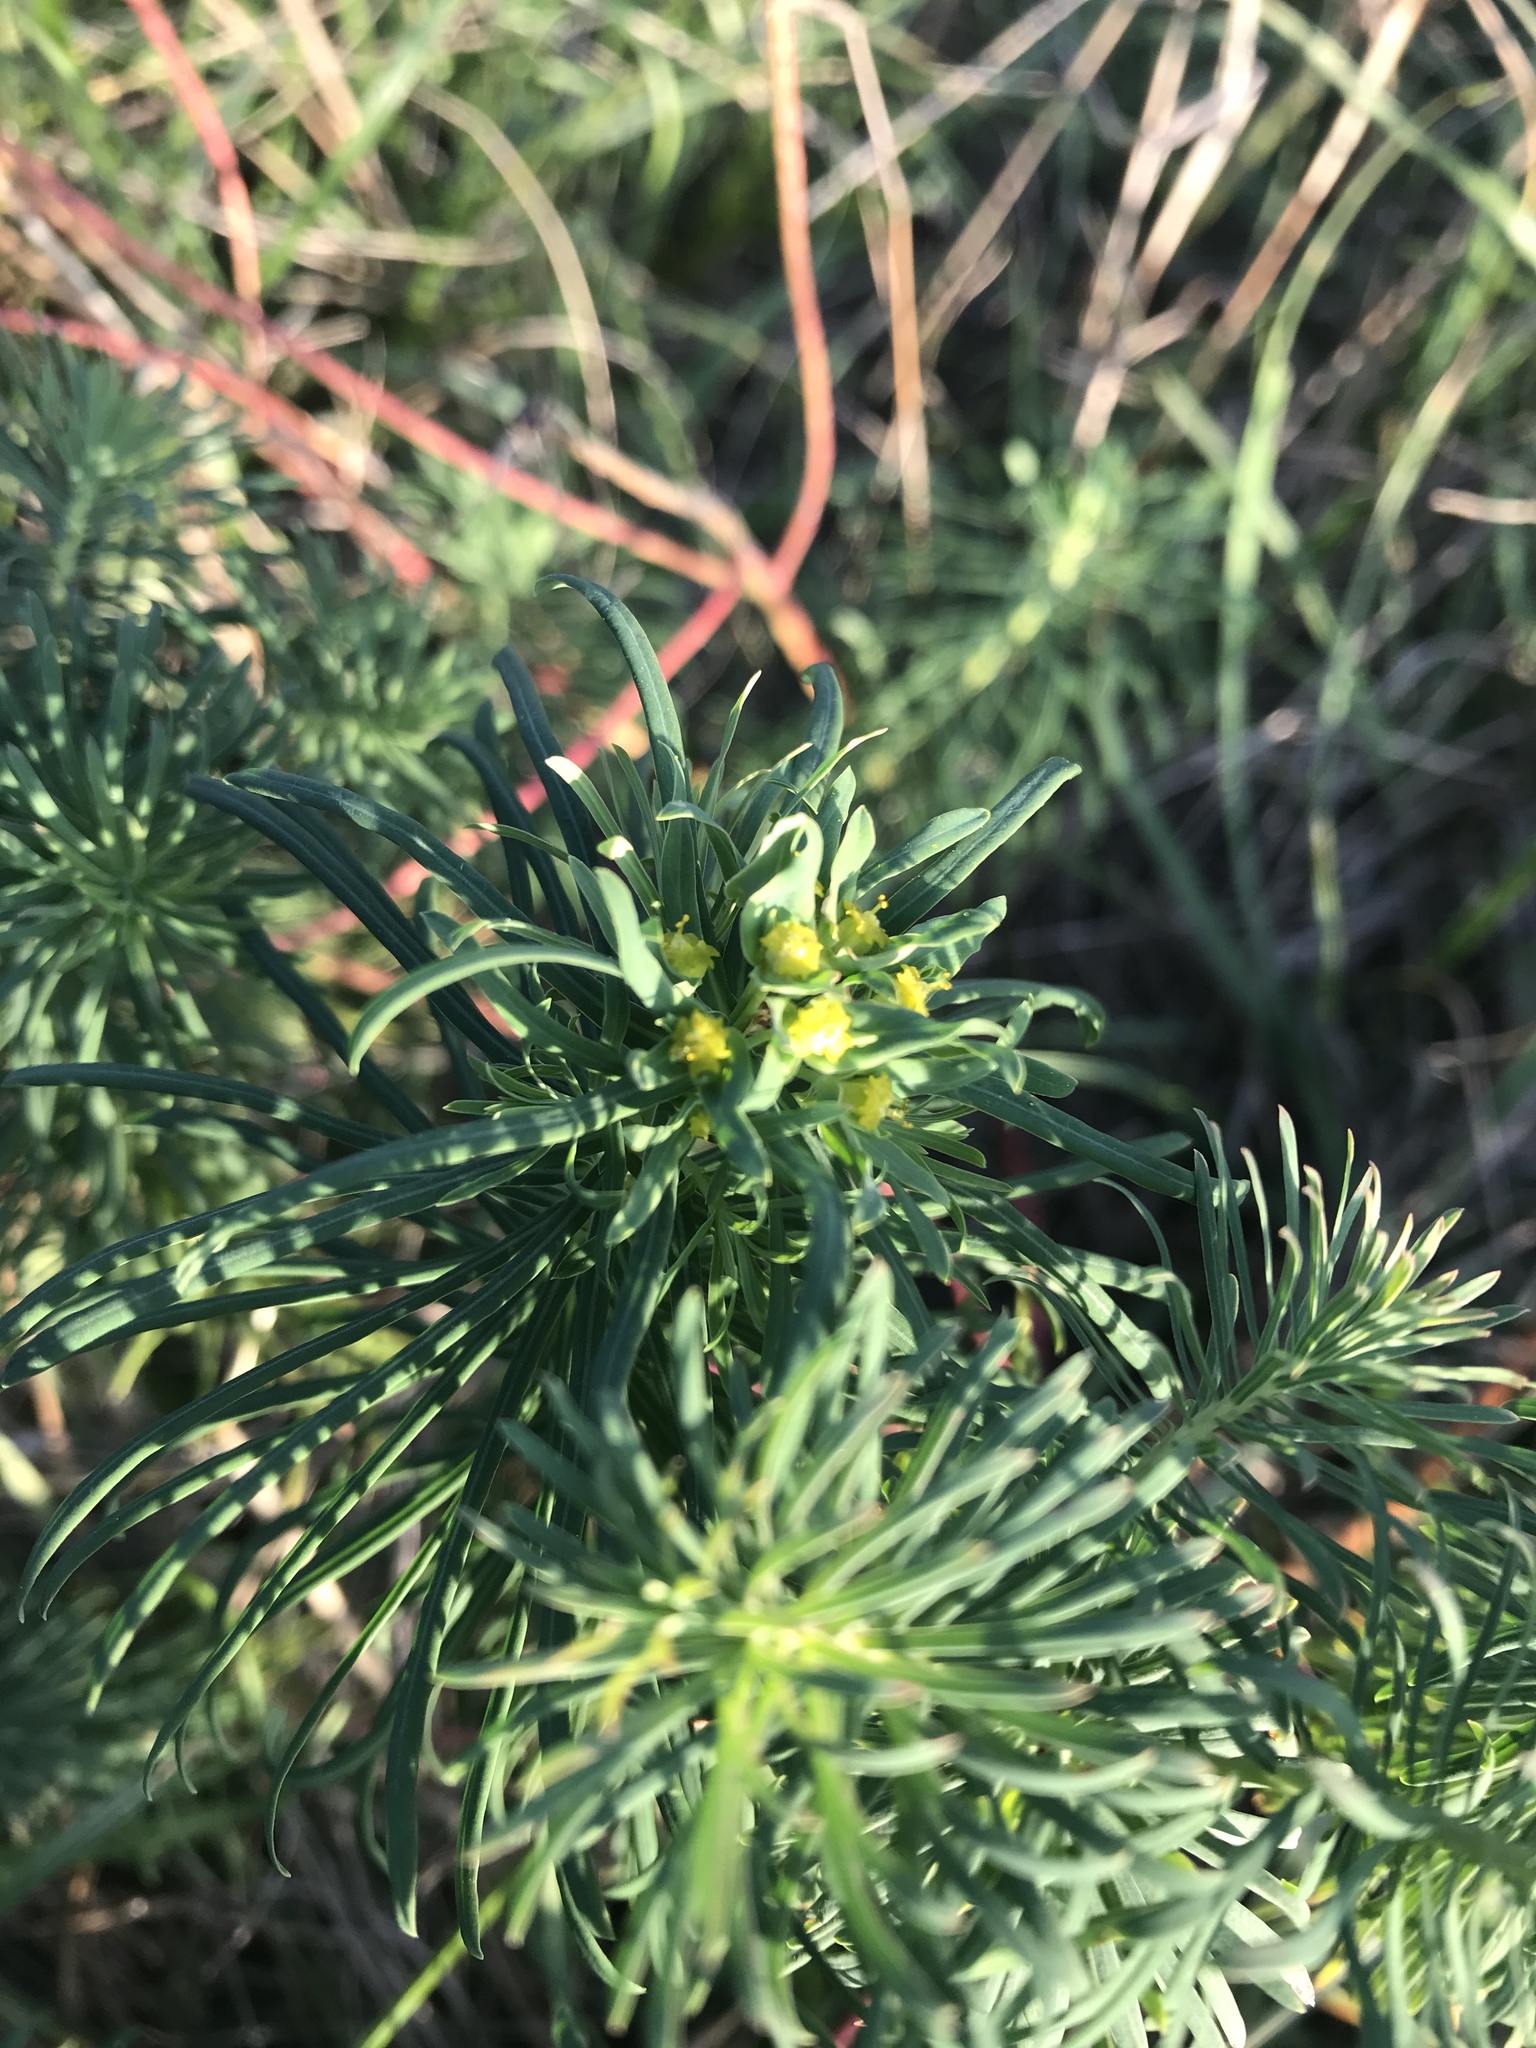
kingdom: Plantae
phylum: Tracheophyta
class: Magnoliopsida
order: Malpighiales
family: Euphorbiaceae
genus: Euphorbia
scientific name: Euphorbia cyparissias
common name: Cypress spurge
